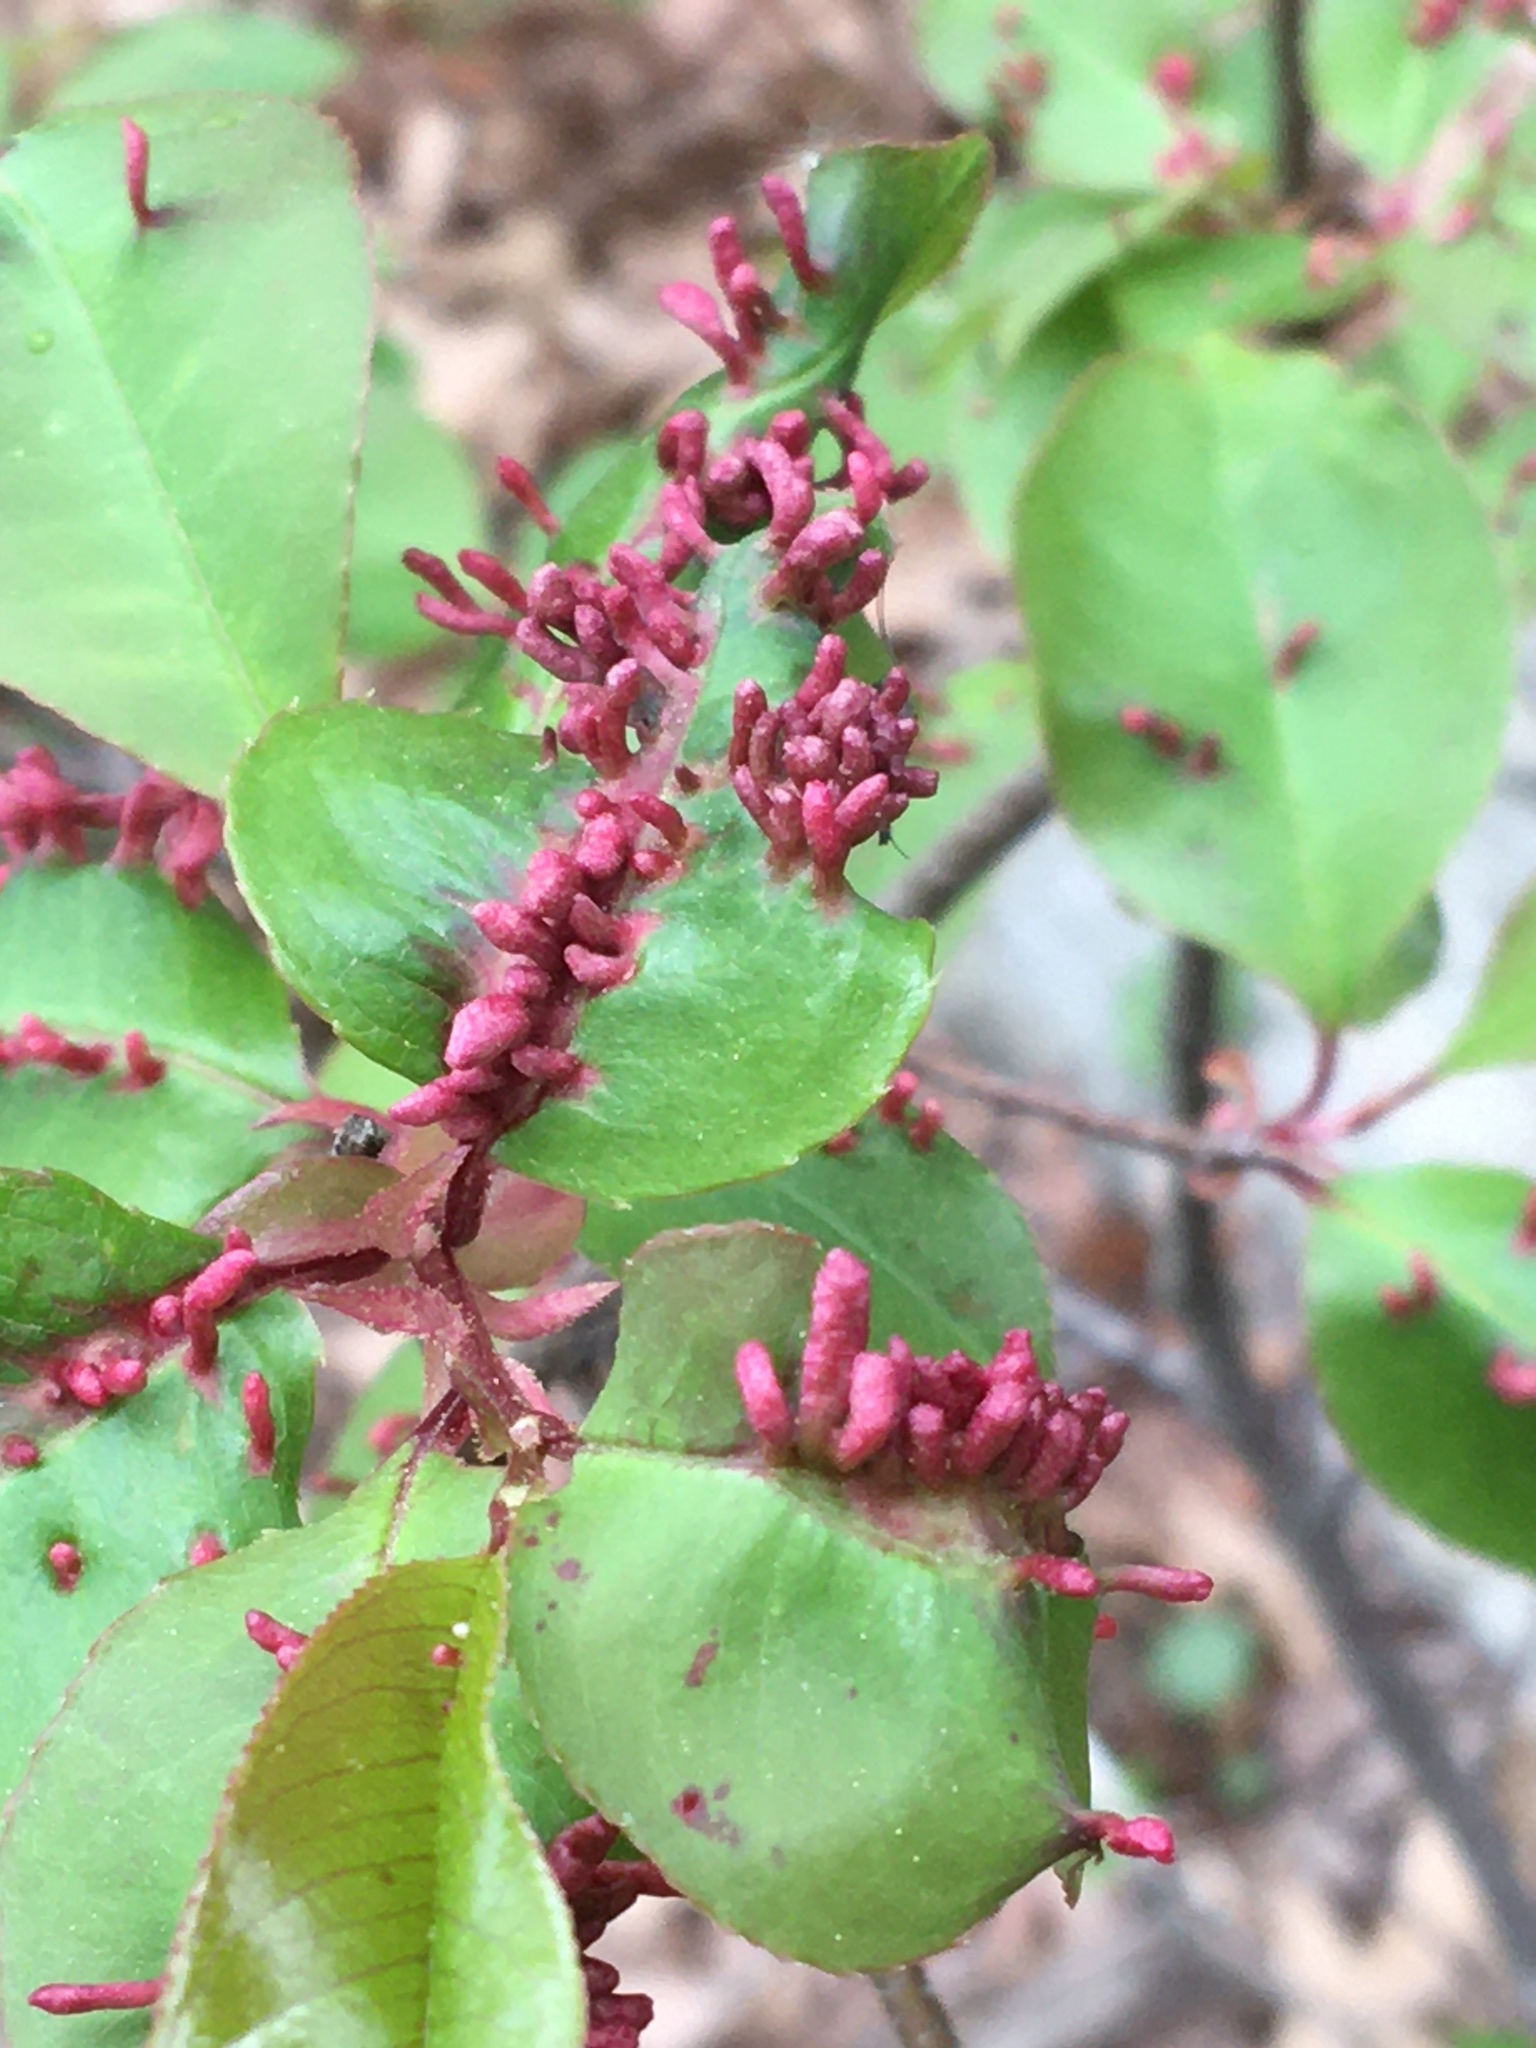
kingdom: Animalia
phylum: Arthropoda
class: Arachnida
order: Trombidiformes
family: Eriophyidae
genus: Eriophyes
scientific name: Eriophyes
